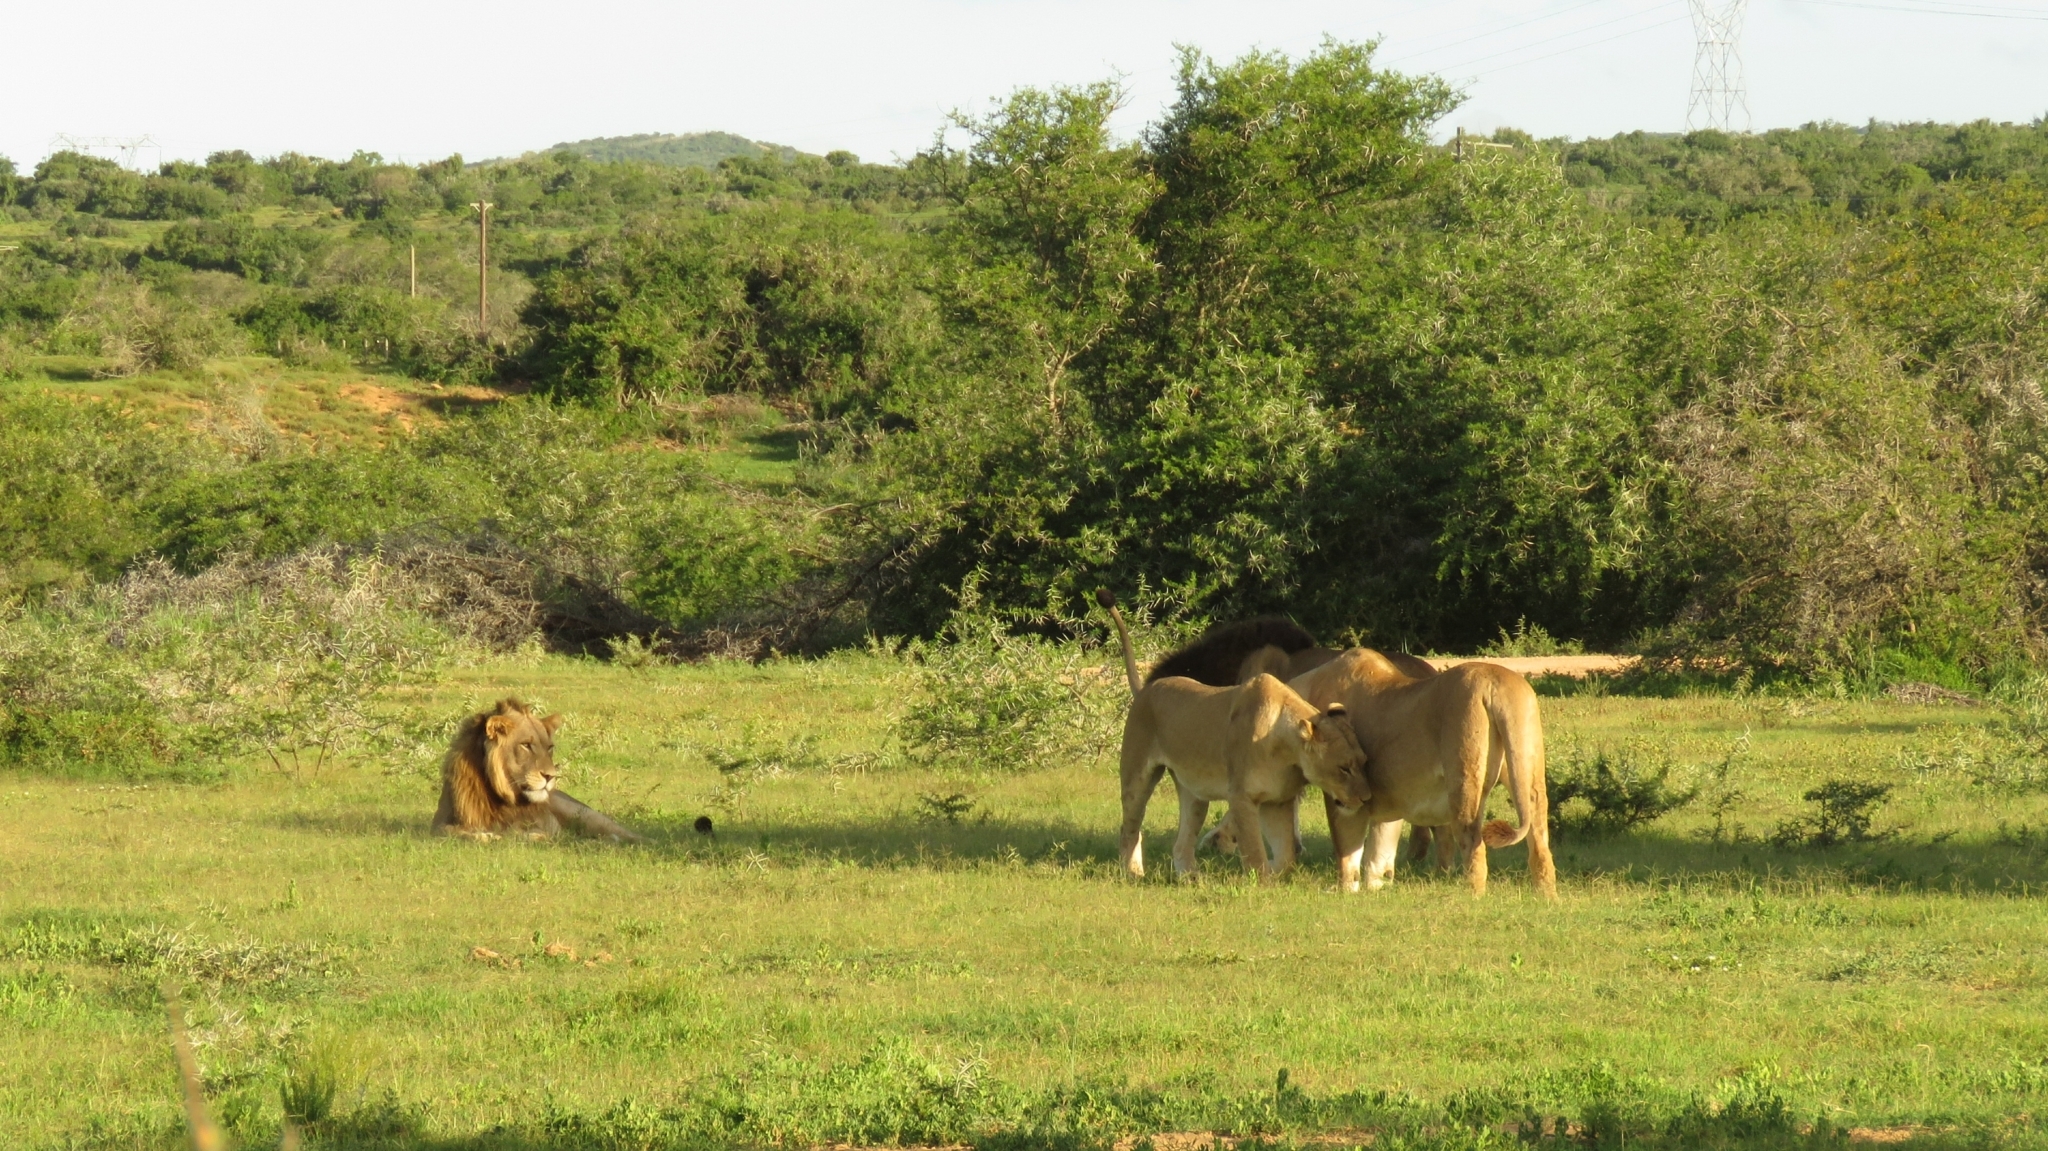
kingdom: Animalia
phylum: Chordata
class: Mammalia
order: Carnivora
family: Felidae
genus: Panthera
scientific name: Panthera leo
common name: Lion
